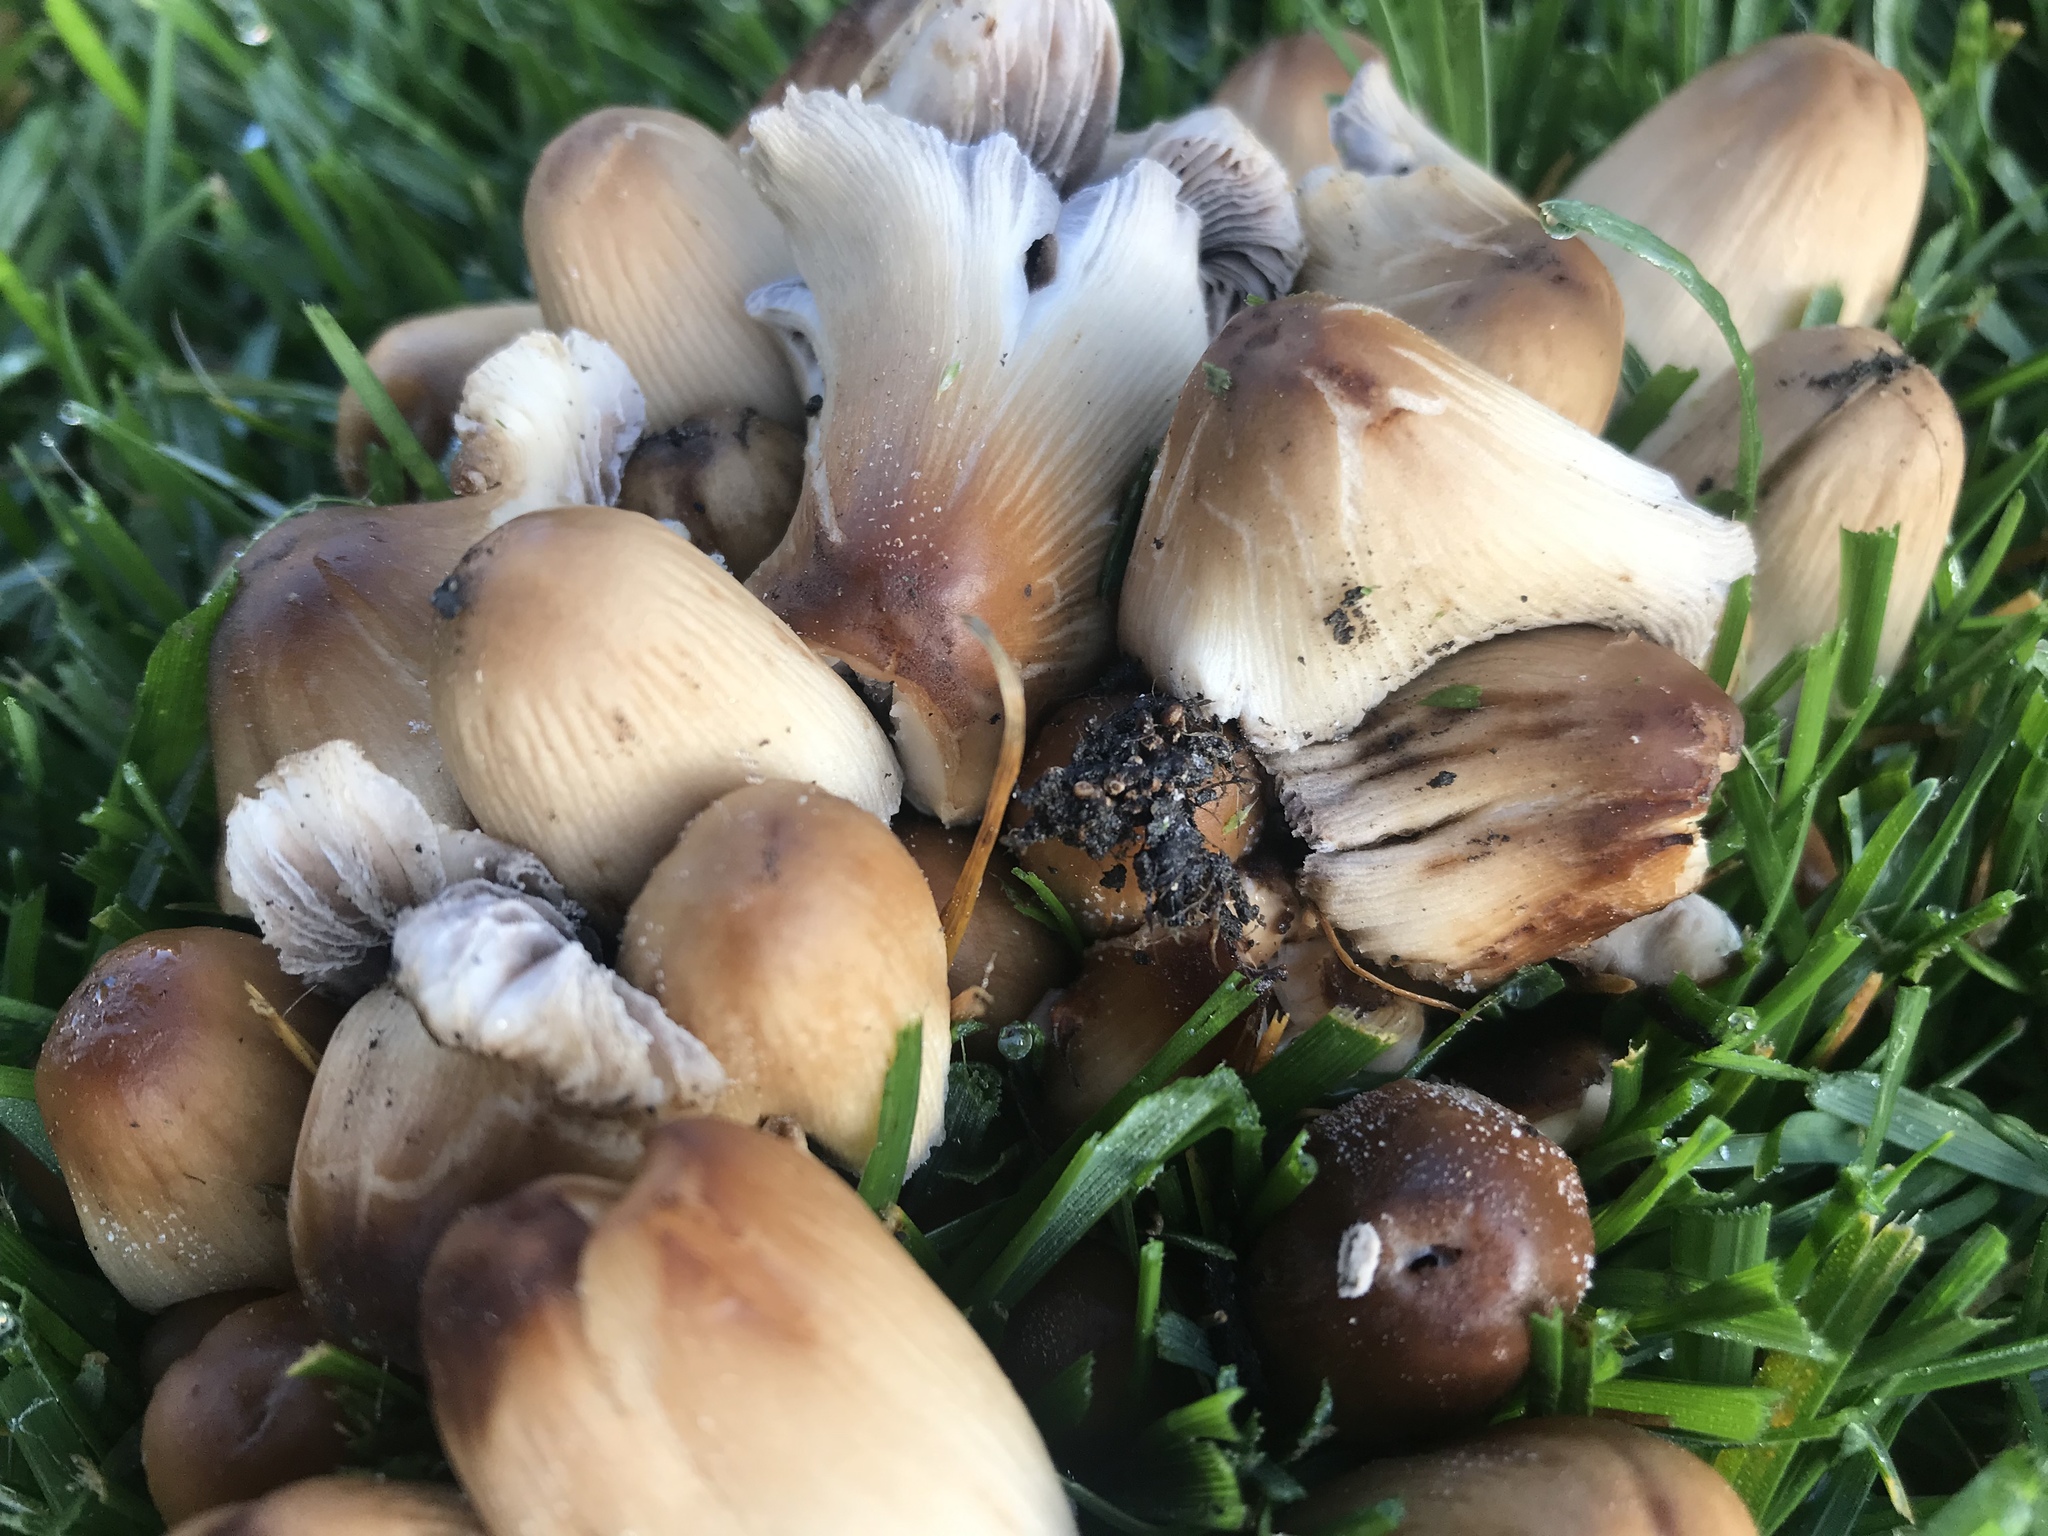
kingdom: Fungi
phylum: Basidiomycota
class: Agaricomycetes
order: Agaricales
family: Psathyrellaceae
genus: Coprinellus
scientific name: Coprinellus micaceus
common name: Glistening ink-cap
